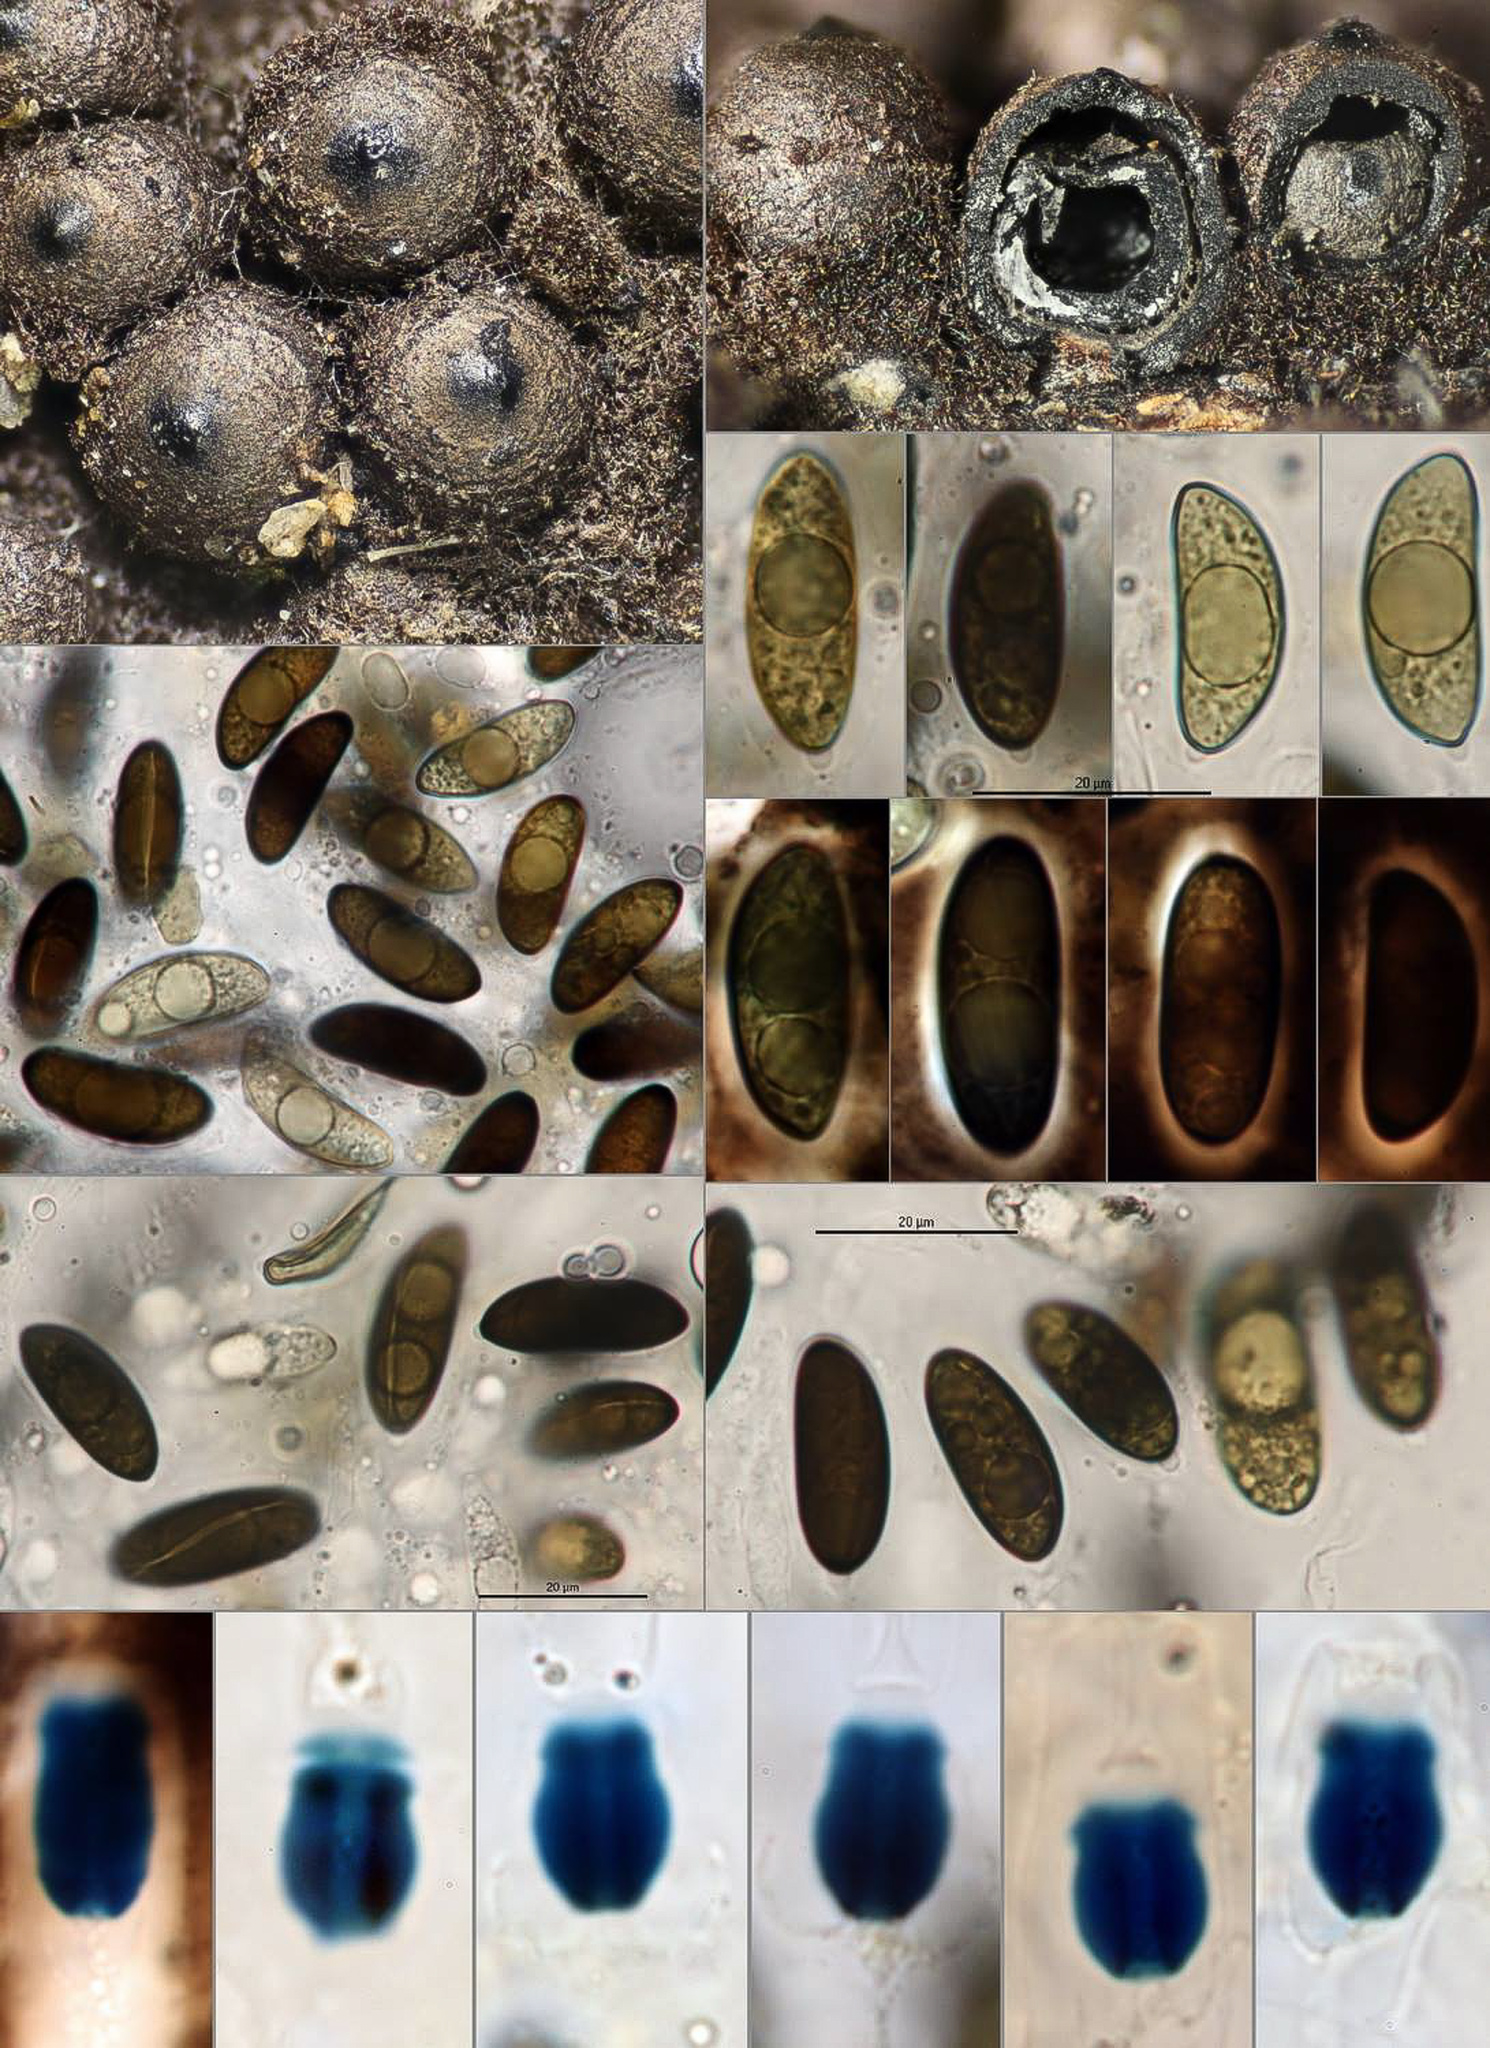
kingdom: Fungi
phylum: Ascomycota
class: Sordariomycetes
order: Xylariales
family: Xylariaceae
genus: Rosellinia
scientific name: Rosellinia corticium
